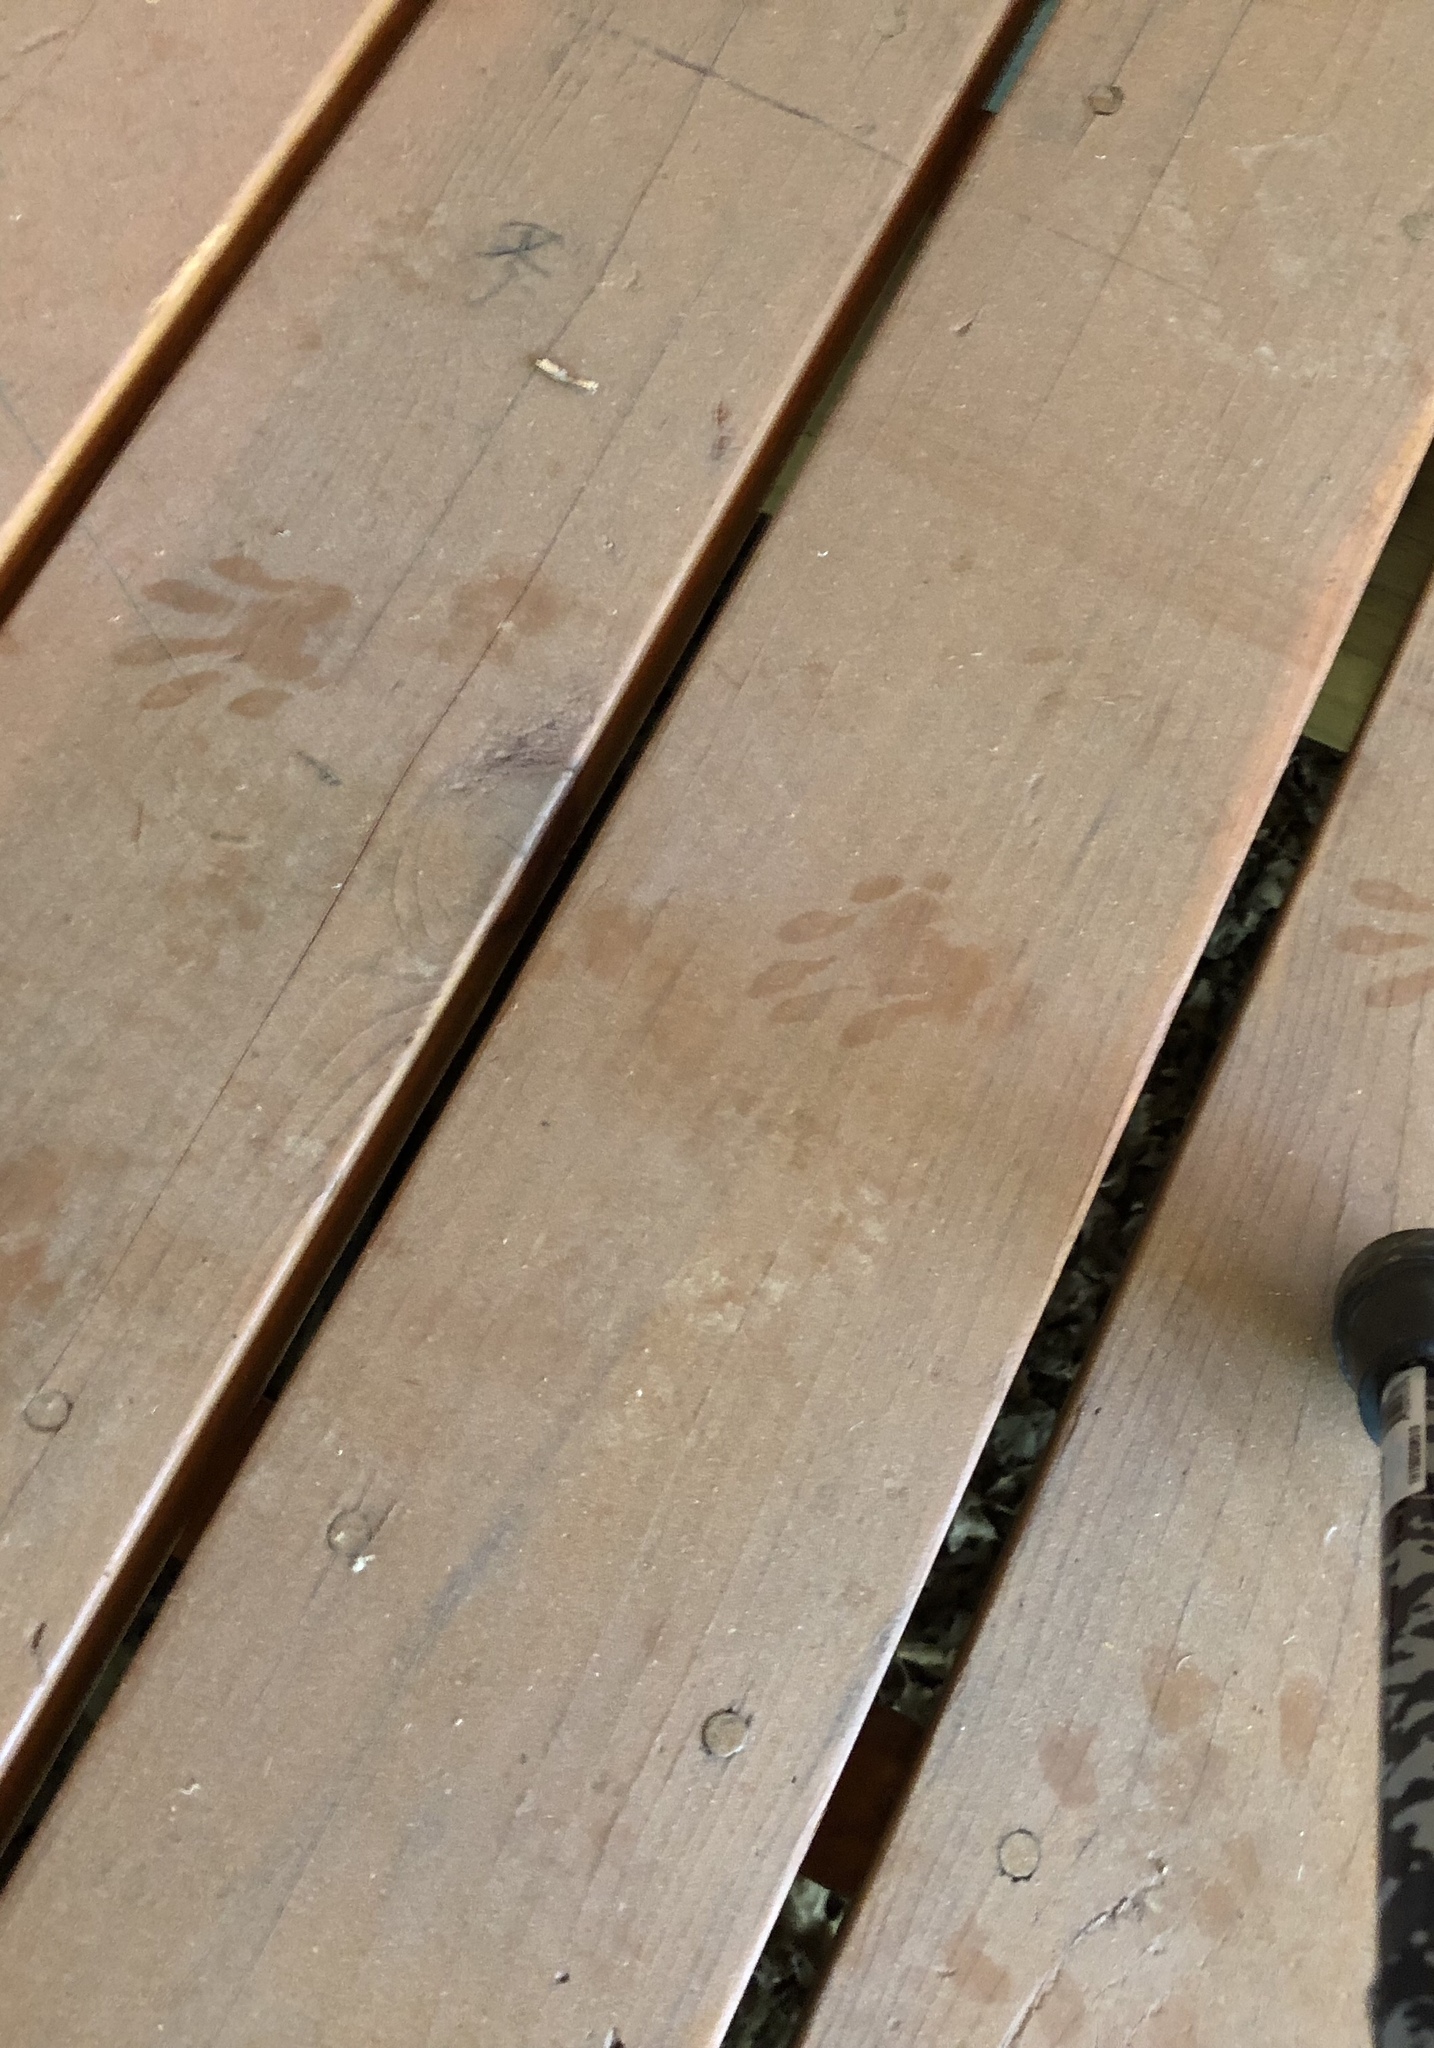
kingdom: Animalia
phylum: Chordata
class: Mammalia
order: Carnivora
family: Procyonidae
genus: Procyon
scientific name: Procyon lotor
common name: Raccoon
